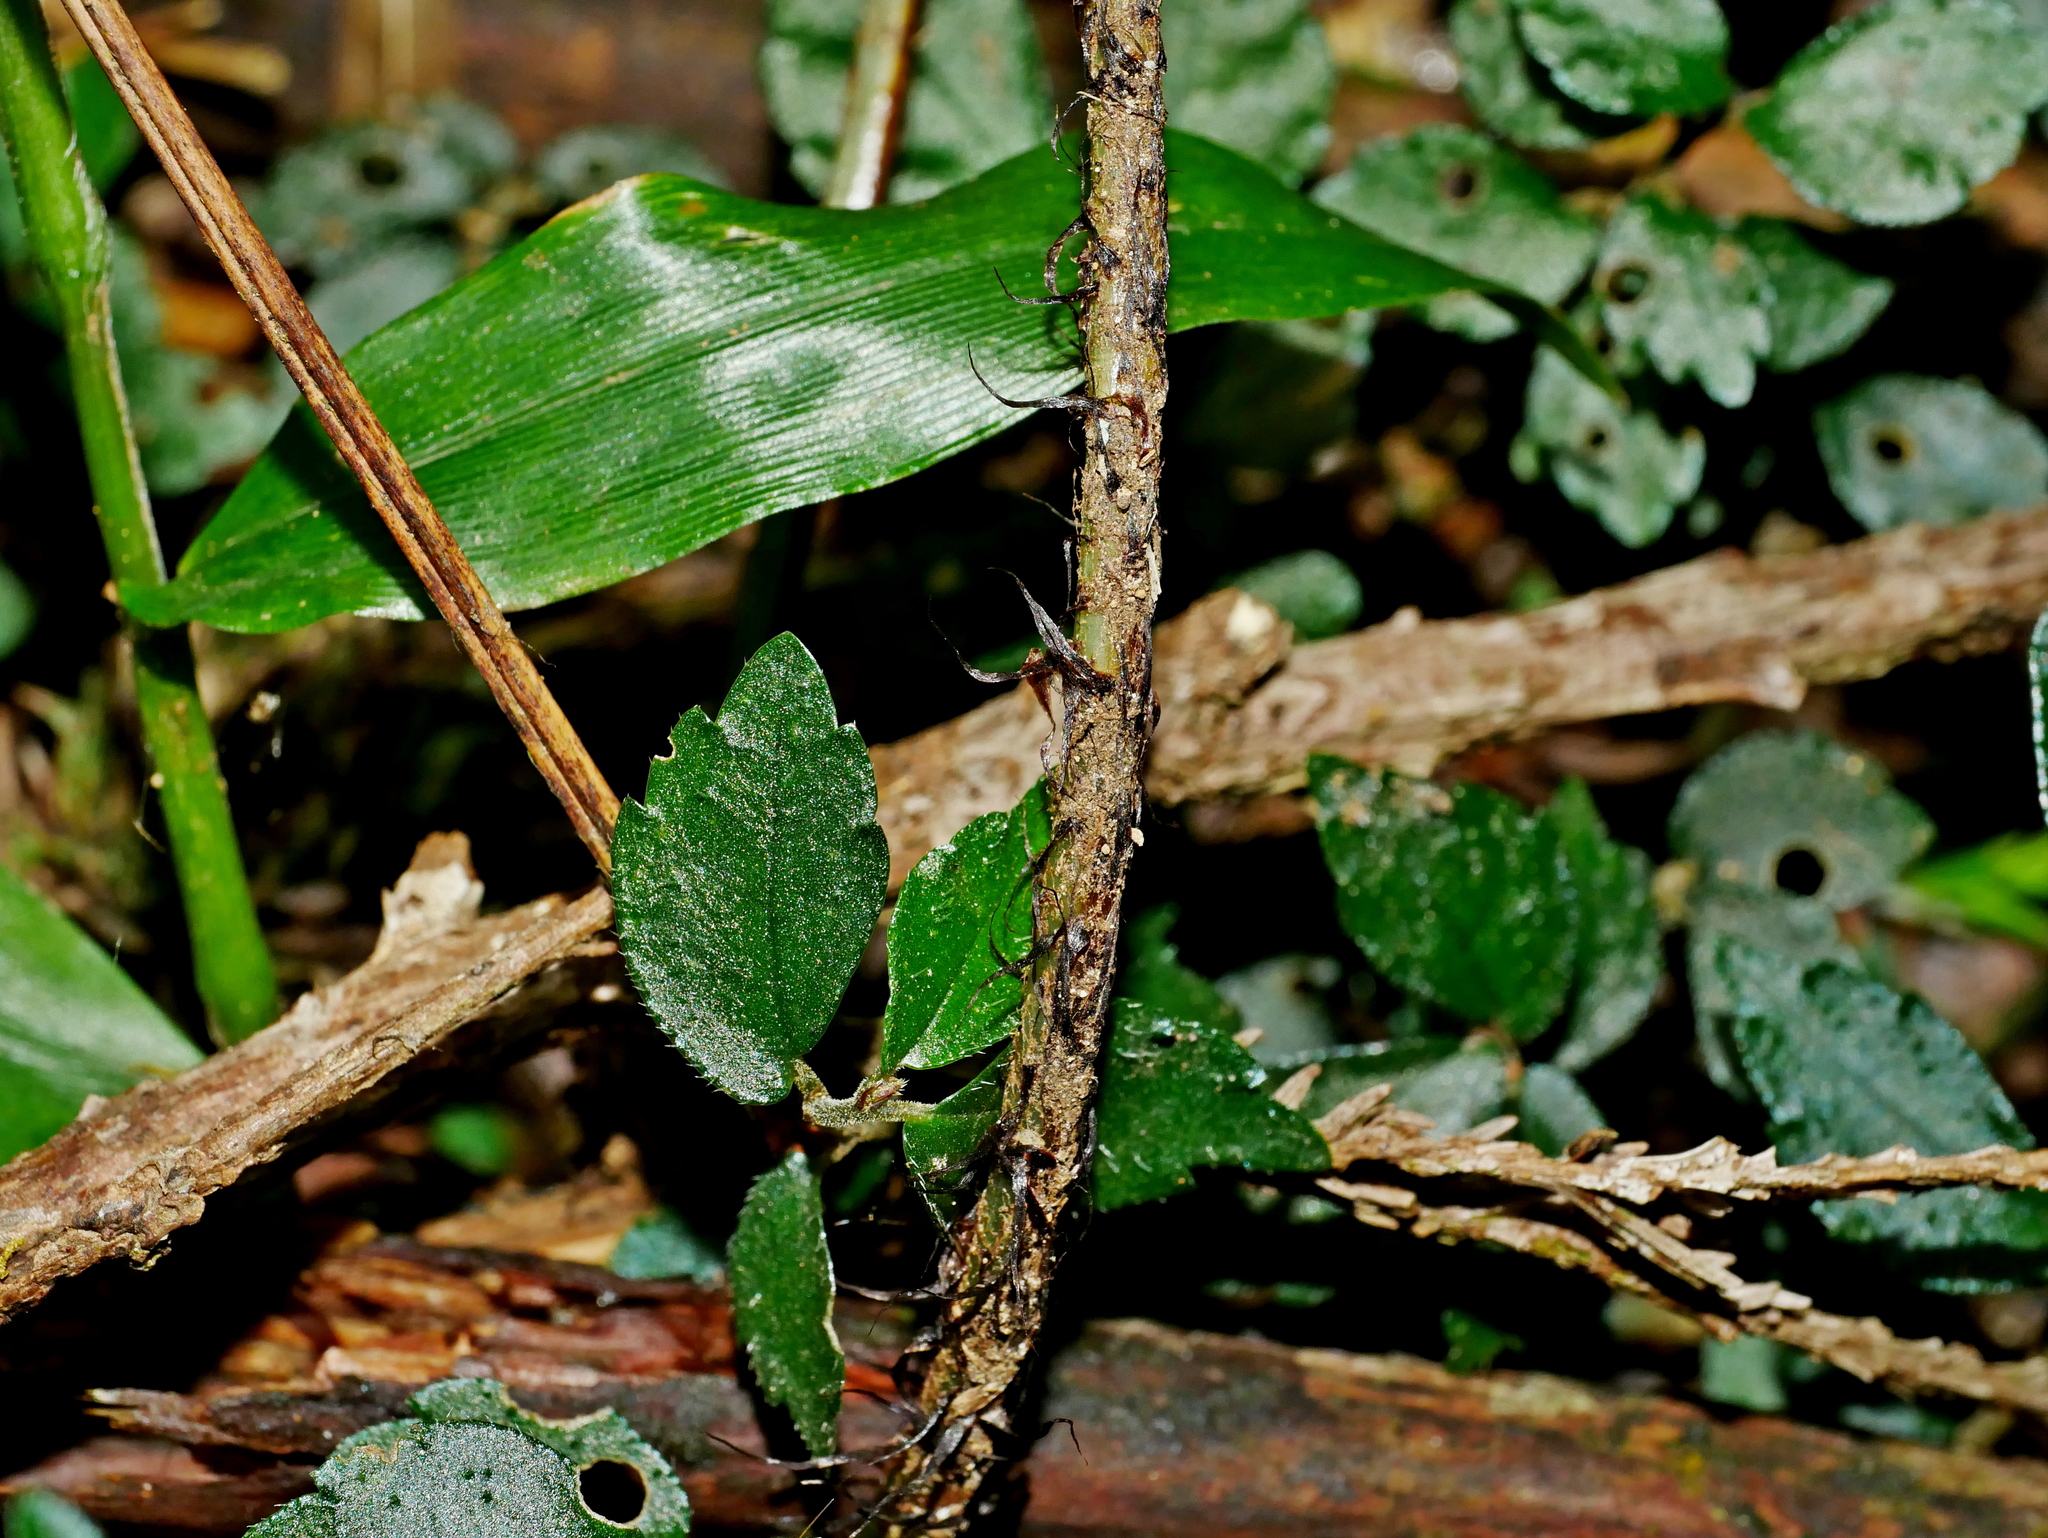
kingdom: Plantae
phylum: Tracheophyta
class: Polypodiopsida
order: Polypodiales
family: Dryopteridaceae
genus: Dryopteris
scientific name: Dryopteris subtriangularis
